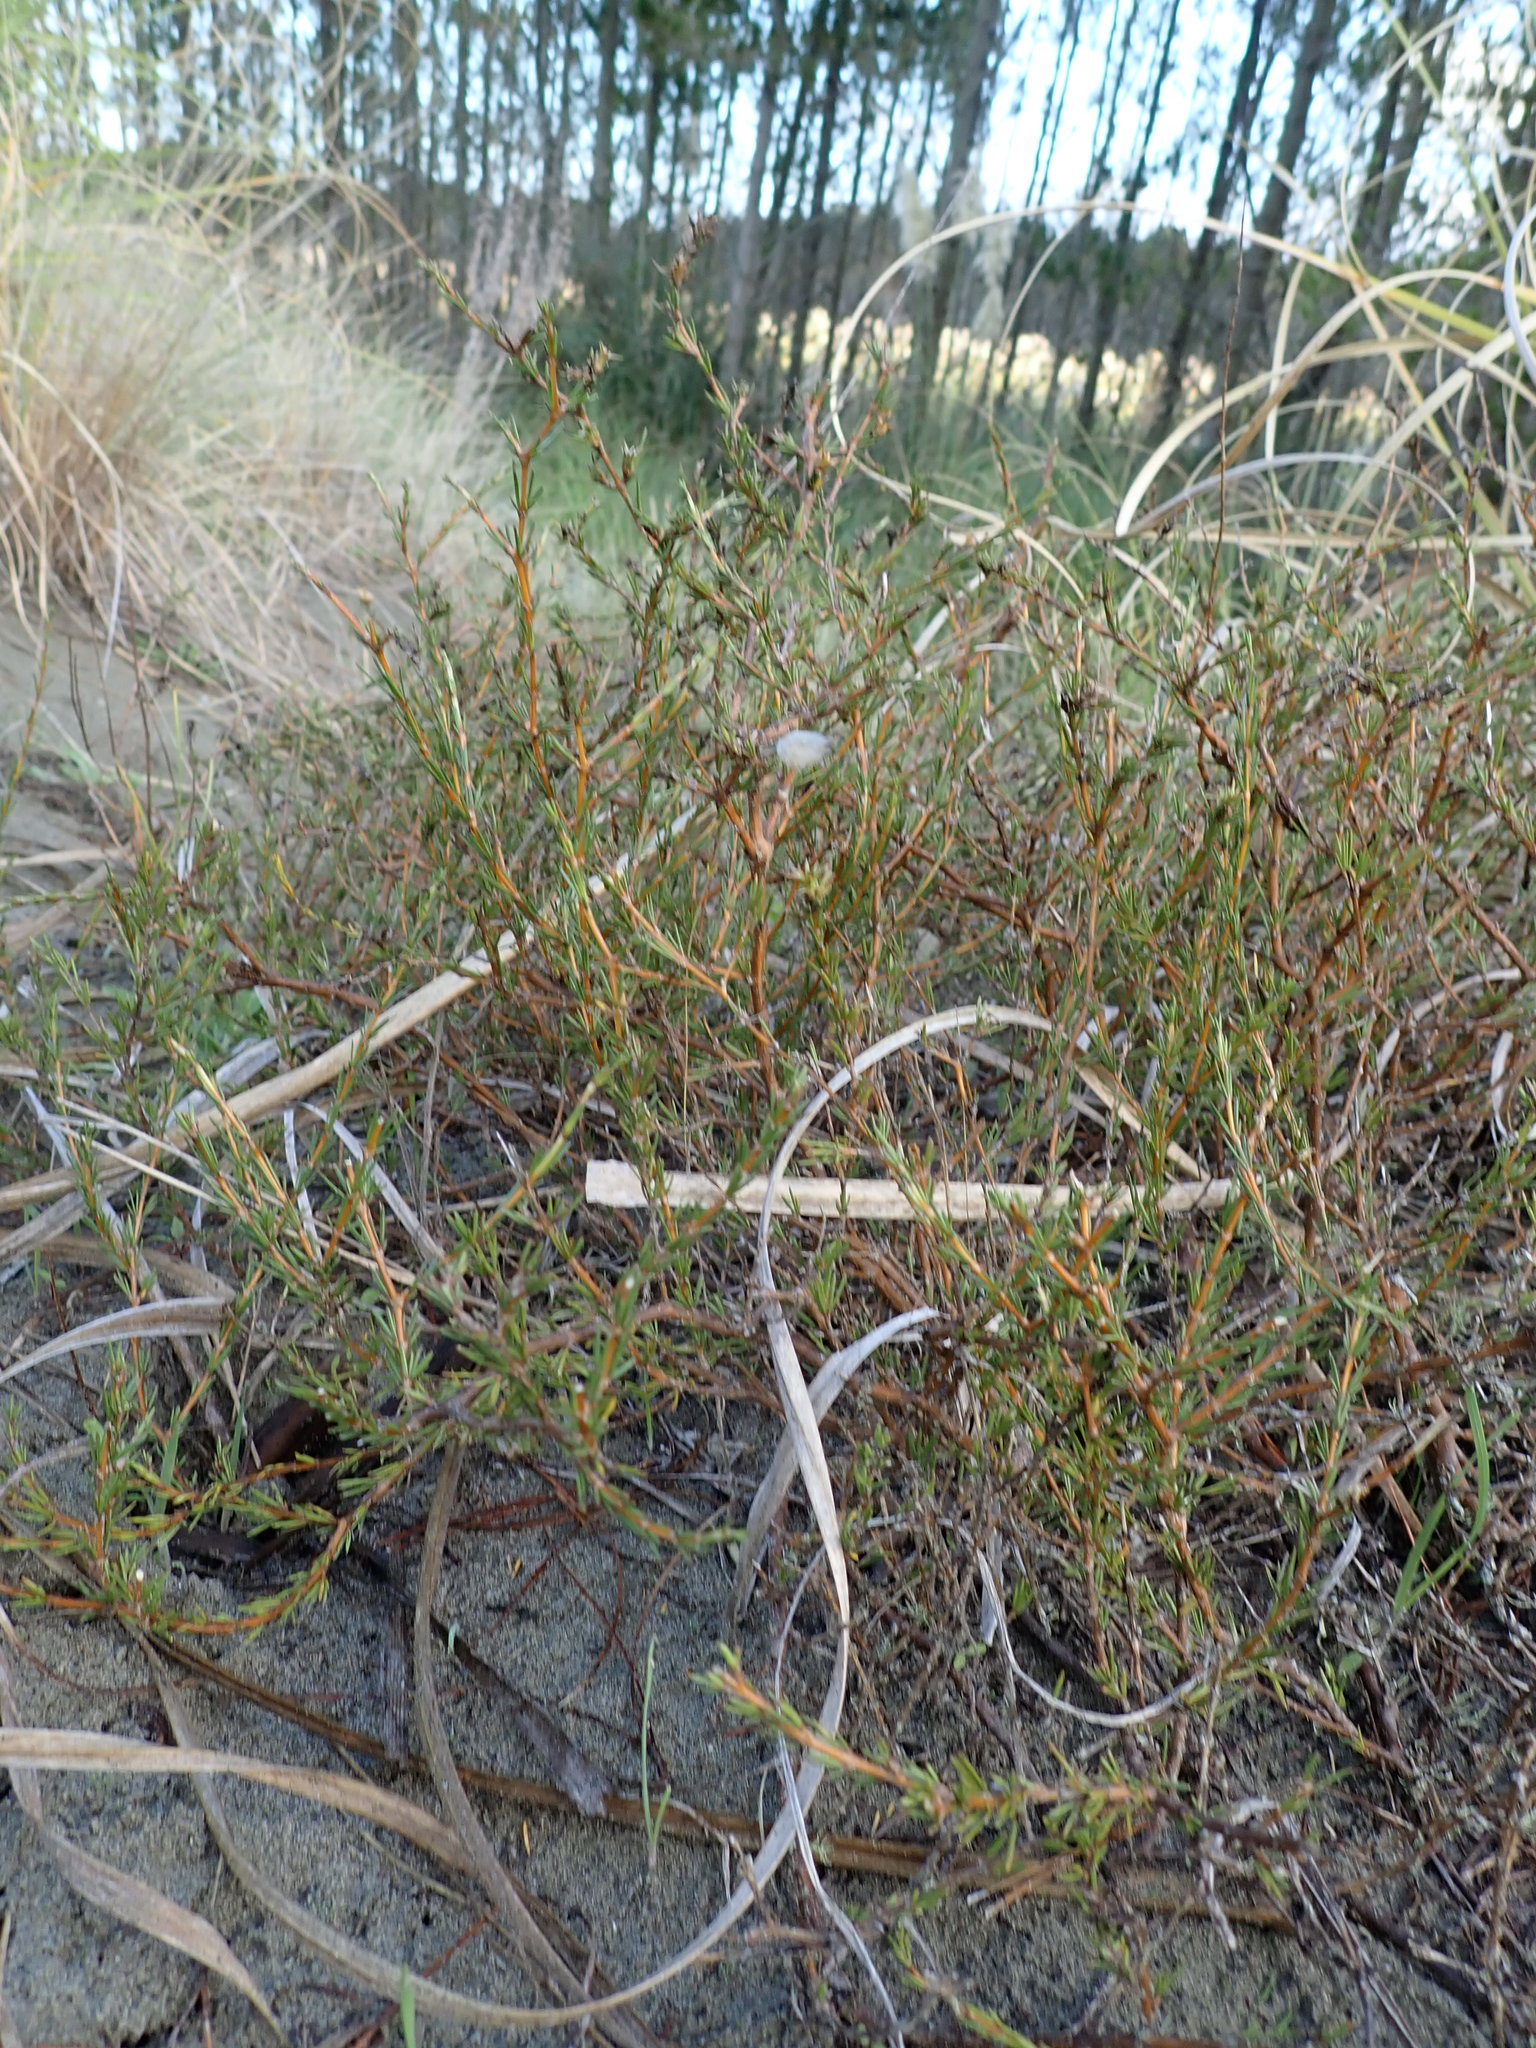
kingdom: Plantae
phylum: Tracheophyta
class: Magnoliopsida
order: Gentianales
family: Rubiaceae
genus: Coprosma
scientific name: Coprosma acerosa
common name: Sand coprosma
